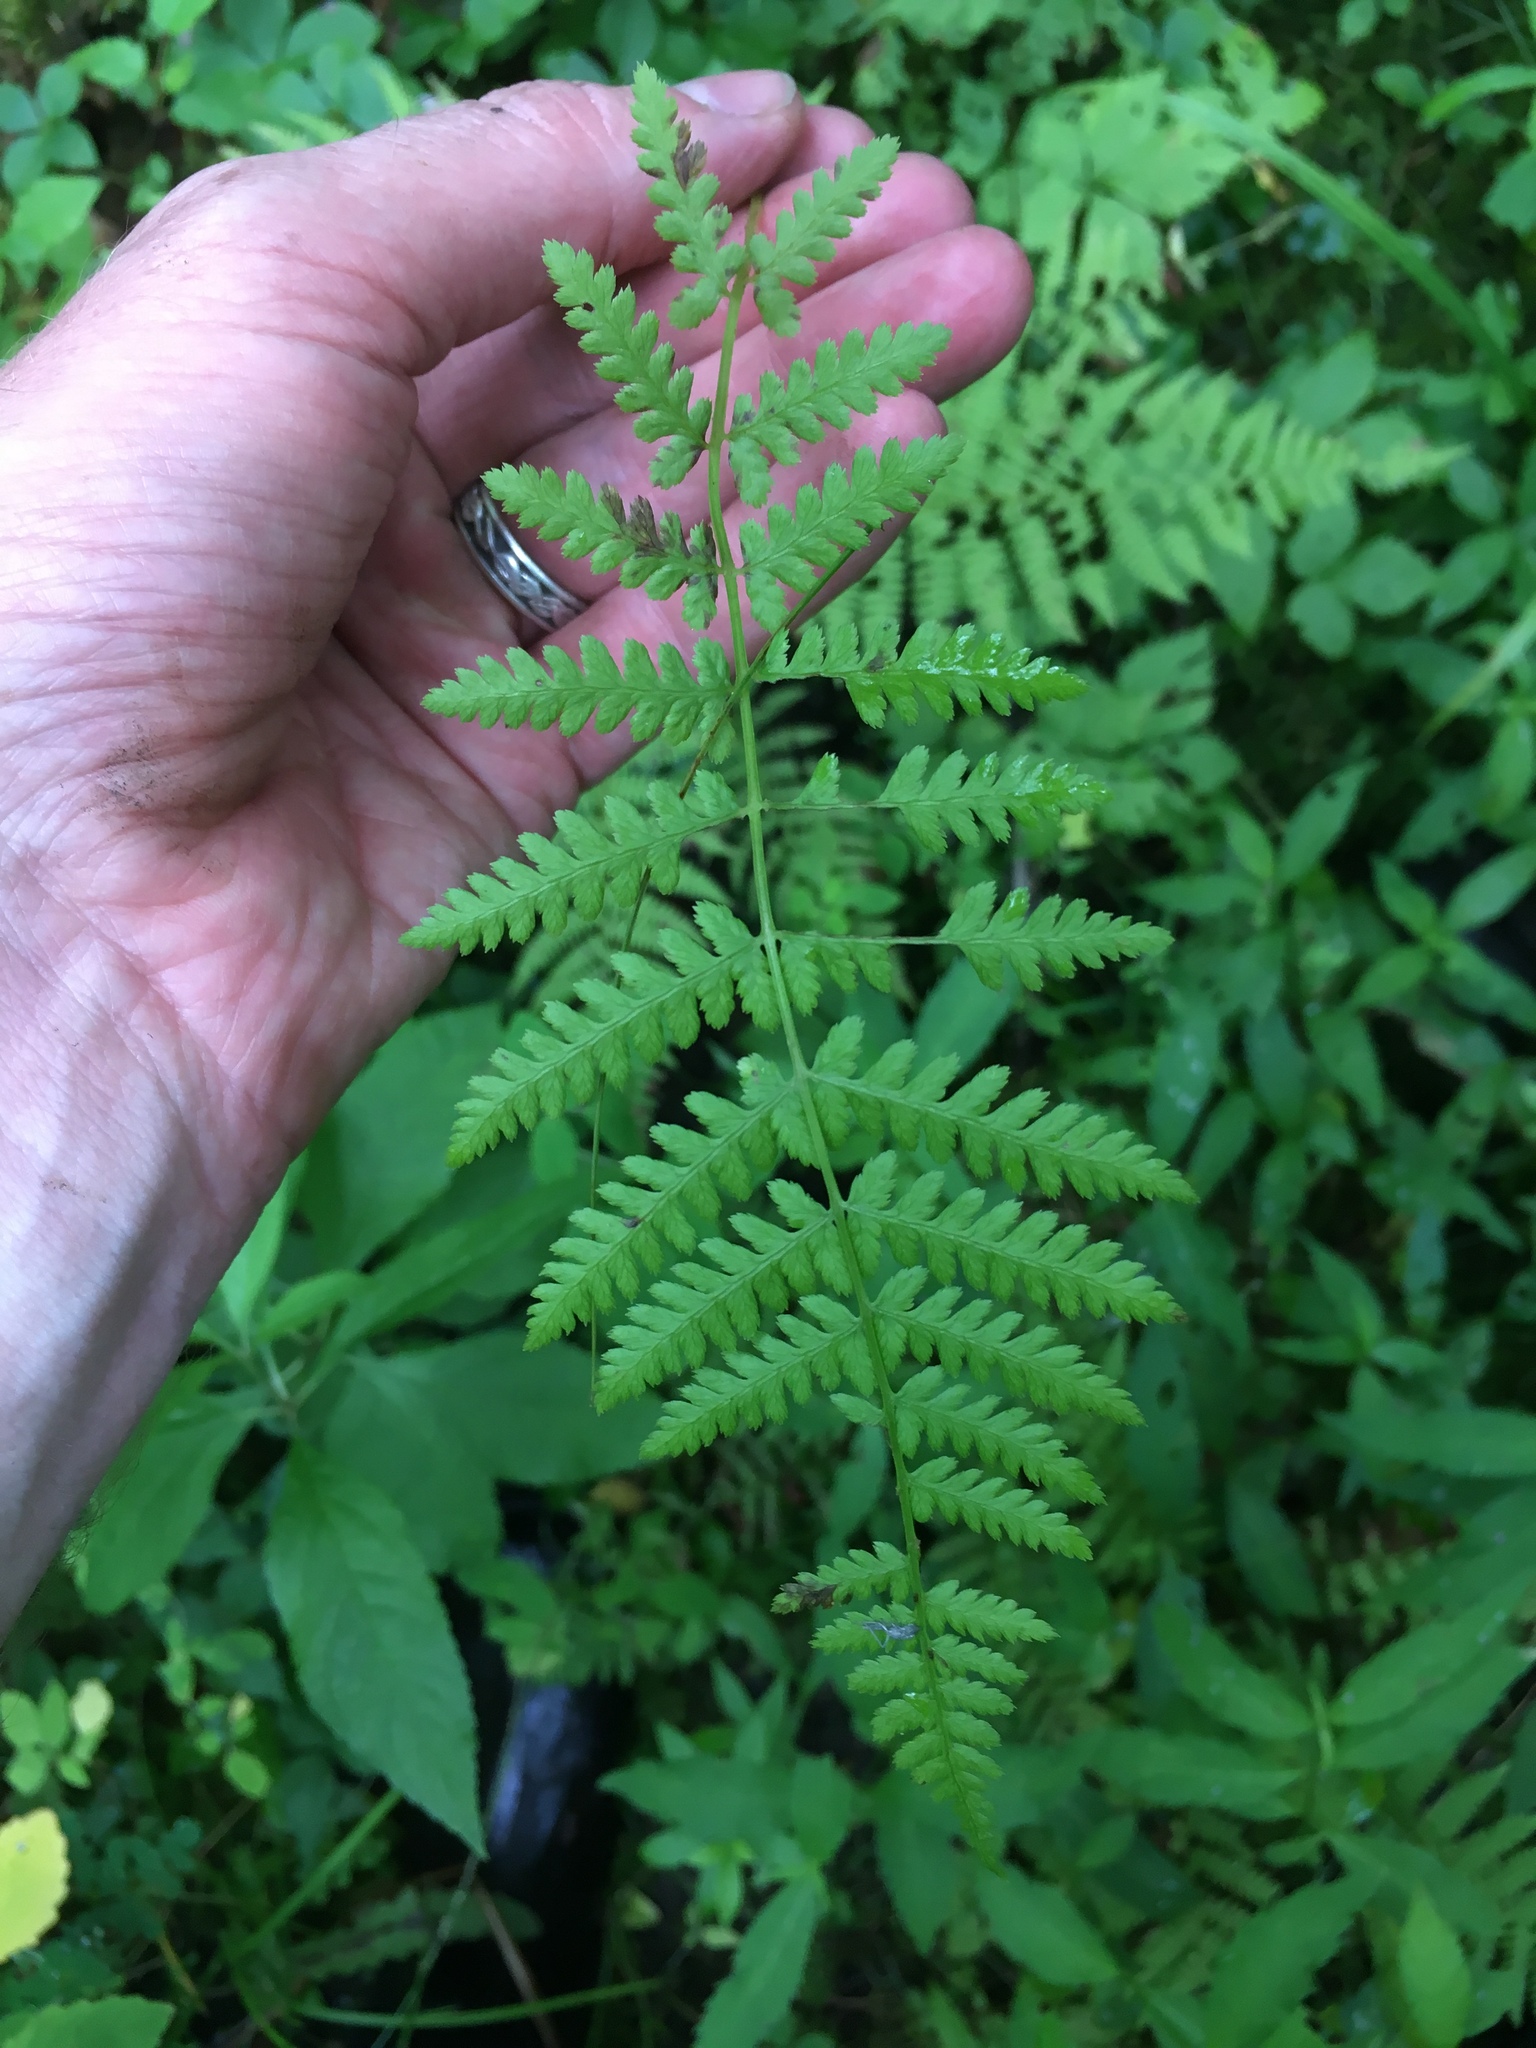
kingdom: Plantae
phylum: Tracheophyta
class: Polypodiopsida
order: Polypodiales
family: Athyriaceae
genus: Athyrium
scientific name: Athyrium angustum
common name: Northern lady fern
